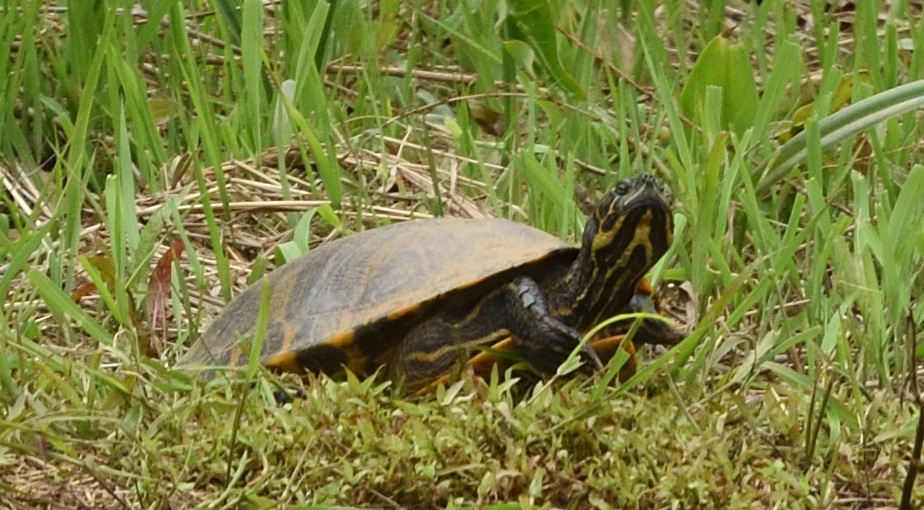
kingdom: Animalia
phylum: Chordata
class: Testudines
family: Emydidae
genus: Pseudemys
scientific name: Pseudemys concinna
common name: Eastern river cooter
